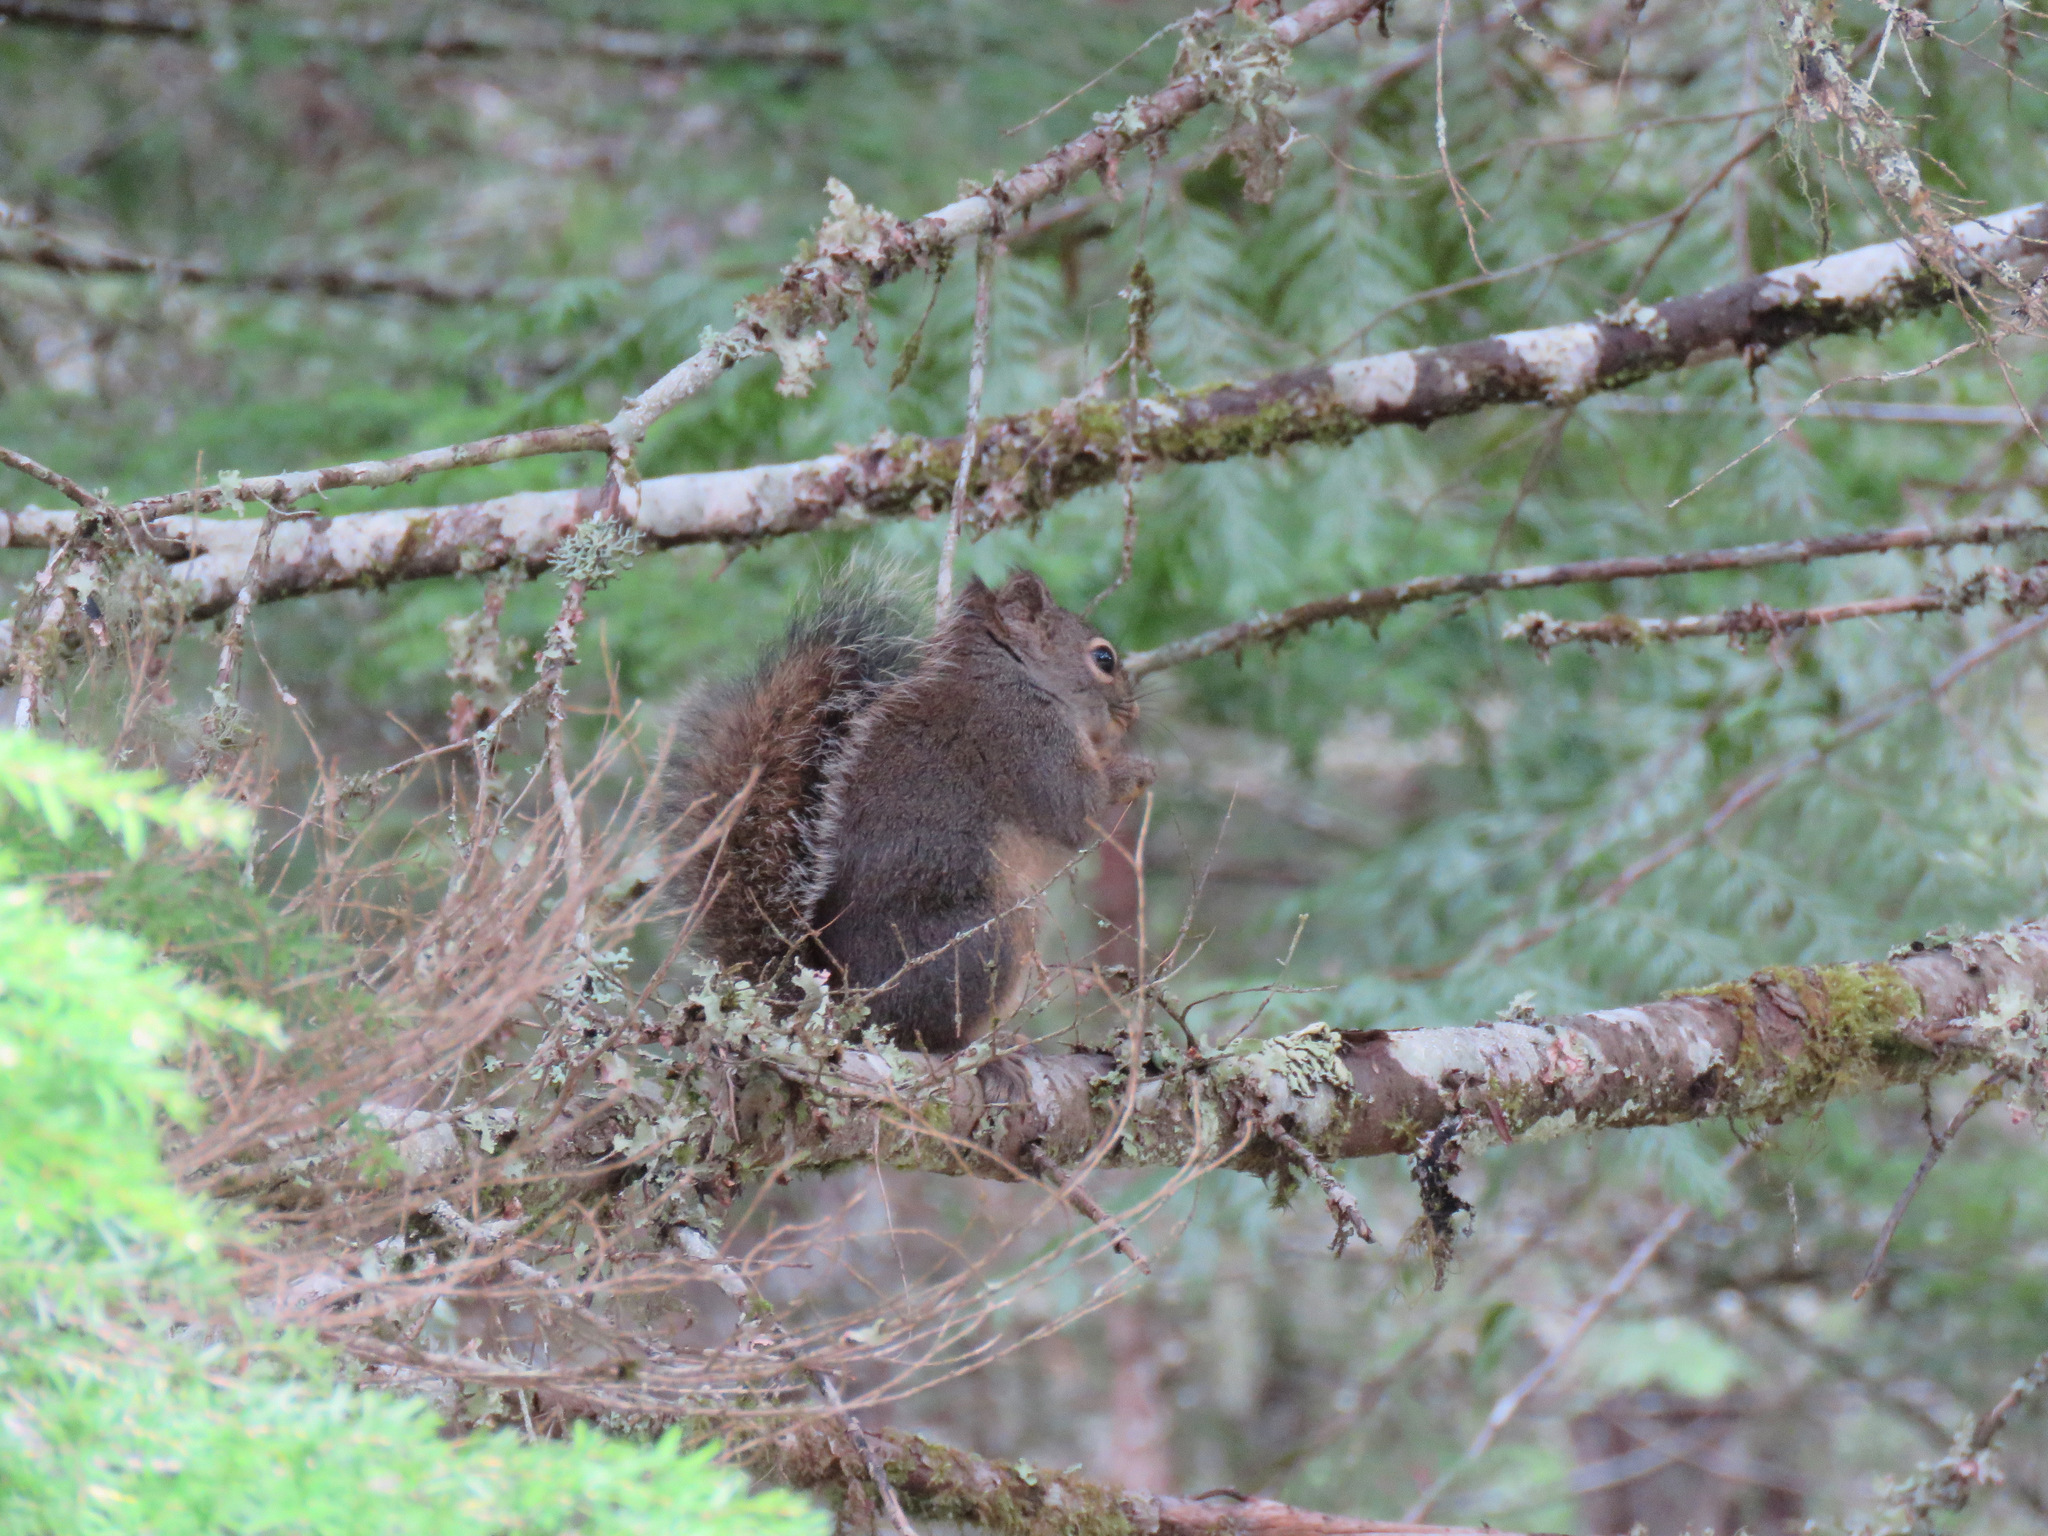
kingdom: Animalia
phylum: Chordata
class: Mammalia
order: Rodentia
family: Sciuridae
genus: Tamiasciurus
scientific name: Tamiasciurus douglasii
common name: Douglas's squirrel
